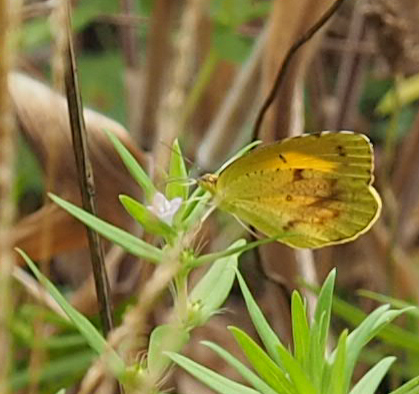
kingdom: Animalia
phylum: Arthropoda
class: Insecta
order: Lepidoptera
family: Pieridae
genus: Abaeis
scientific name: Abaeis nicippe
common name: Sleepy orange
